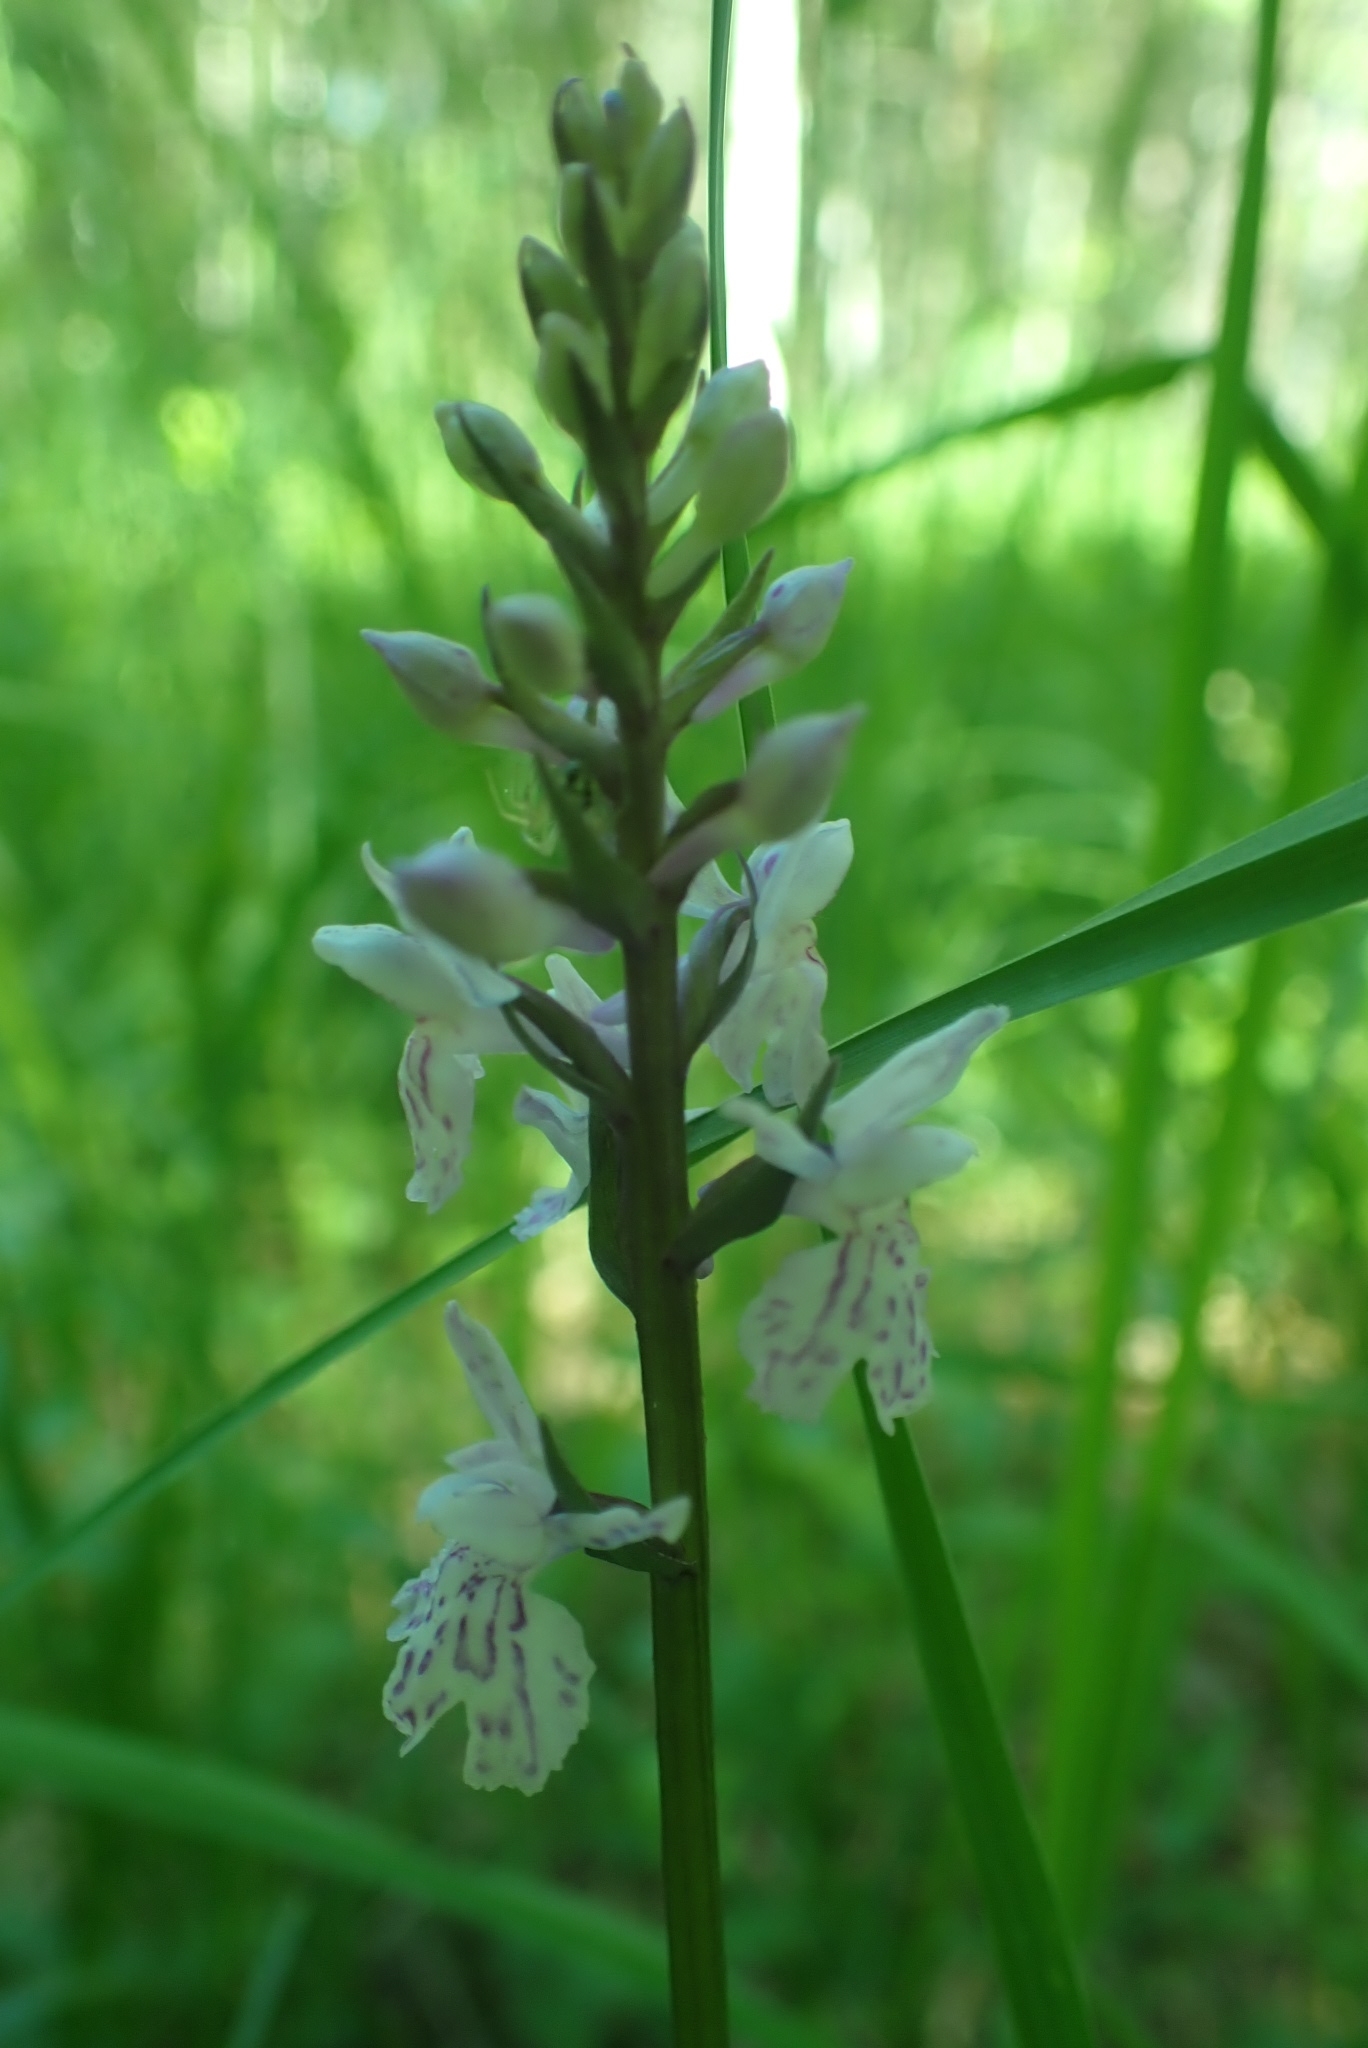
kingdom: Plantae
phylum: Tracheophyta
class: Liliopsida
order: Asparagales
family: Orchidaceae
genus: Dactylorhiza
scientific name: Dactylorhiza maculata
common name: Heath spotted-orchid
